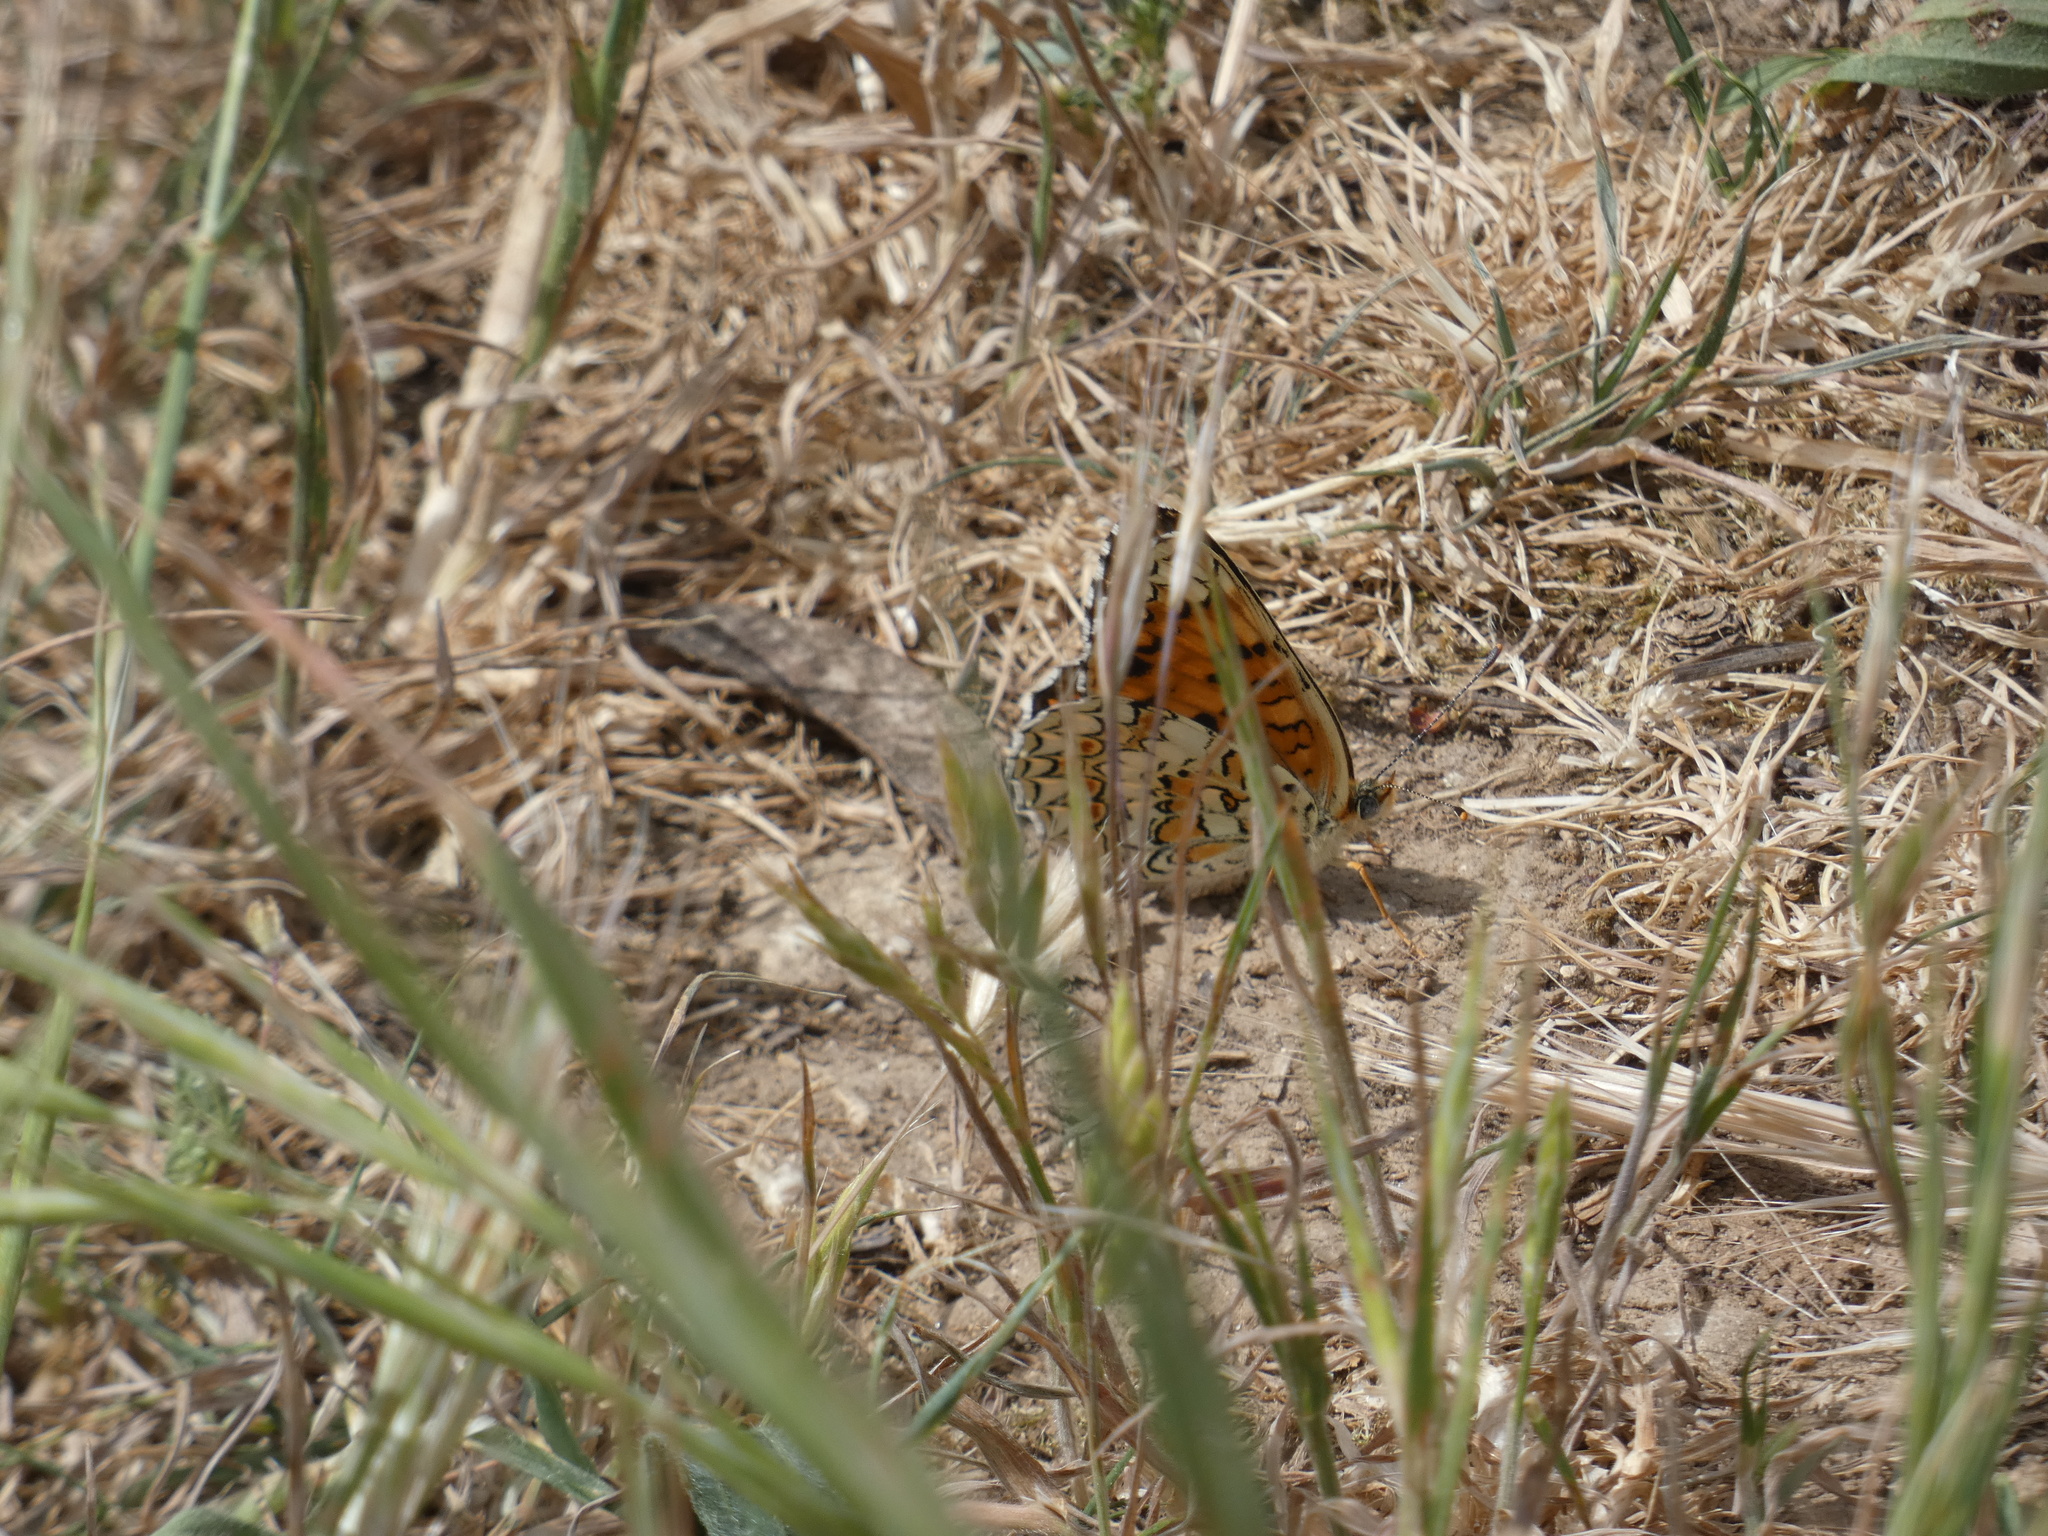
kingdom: Animalia
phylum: Arthropoda
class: Insecta
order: Lepidoptera
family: Nymphalidae
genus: Melitaea
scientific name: Melitaea phoebe
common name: Knapweed fritillary
